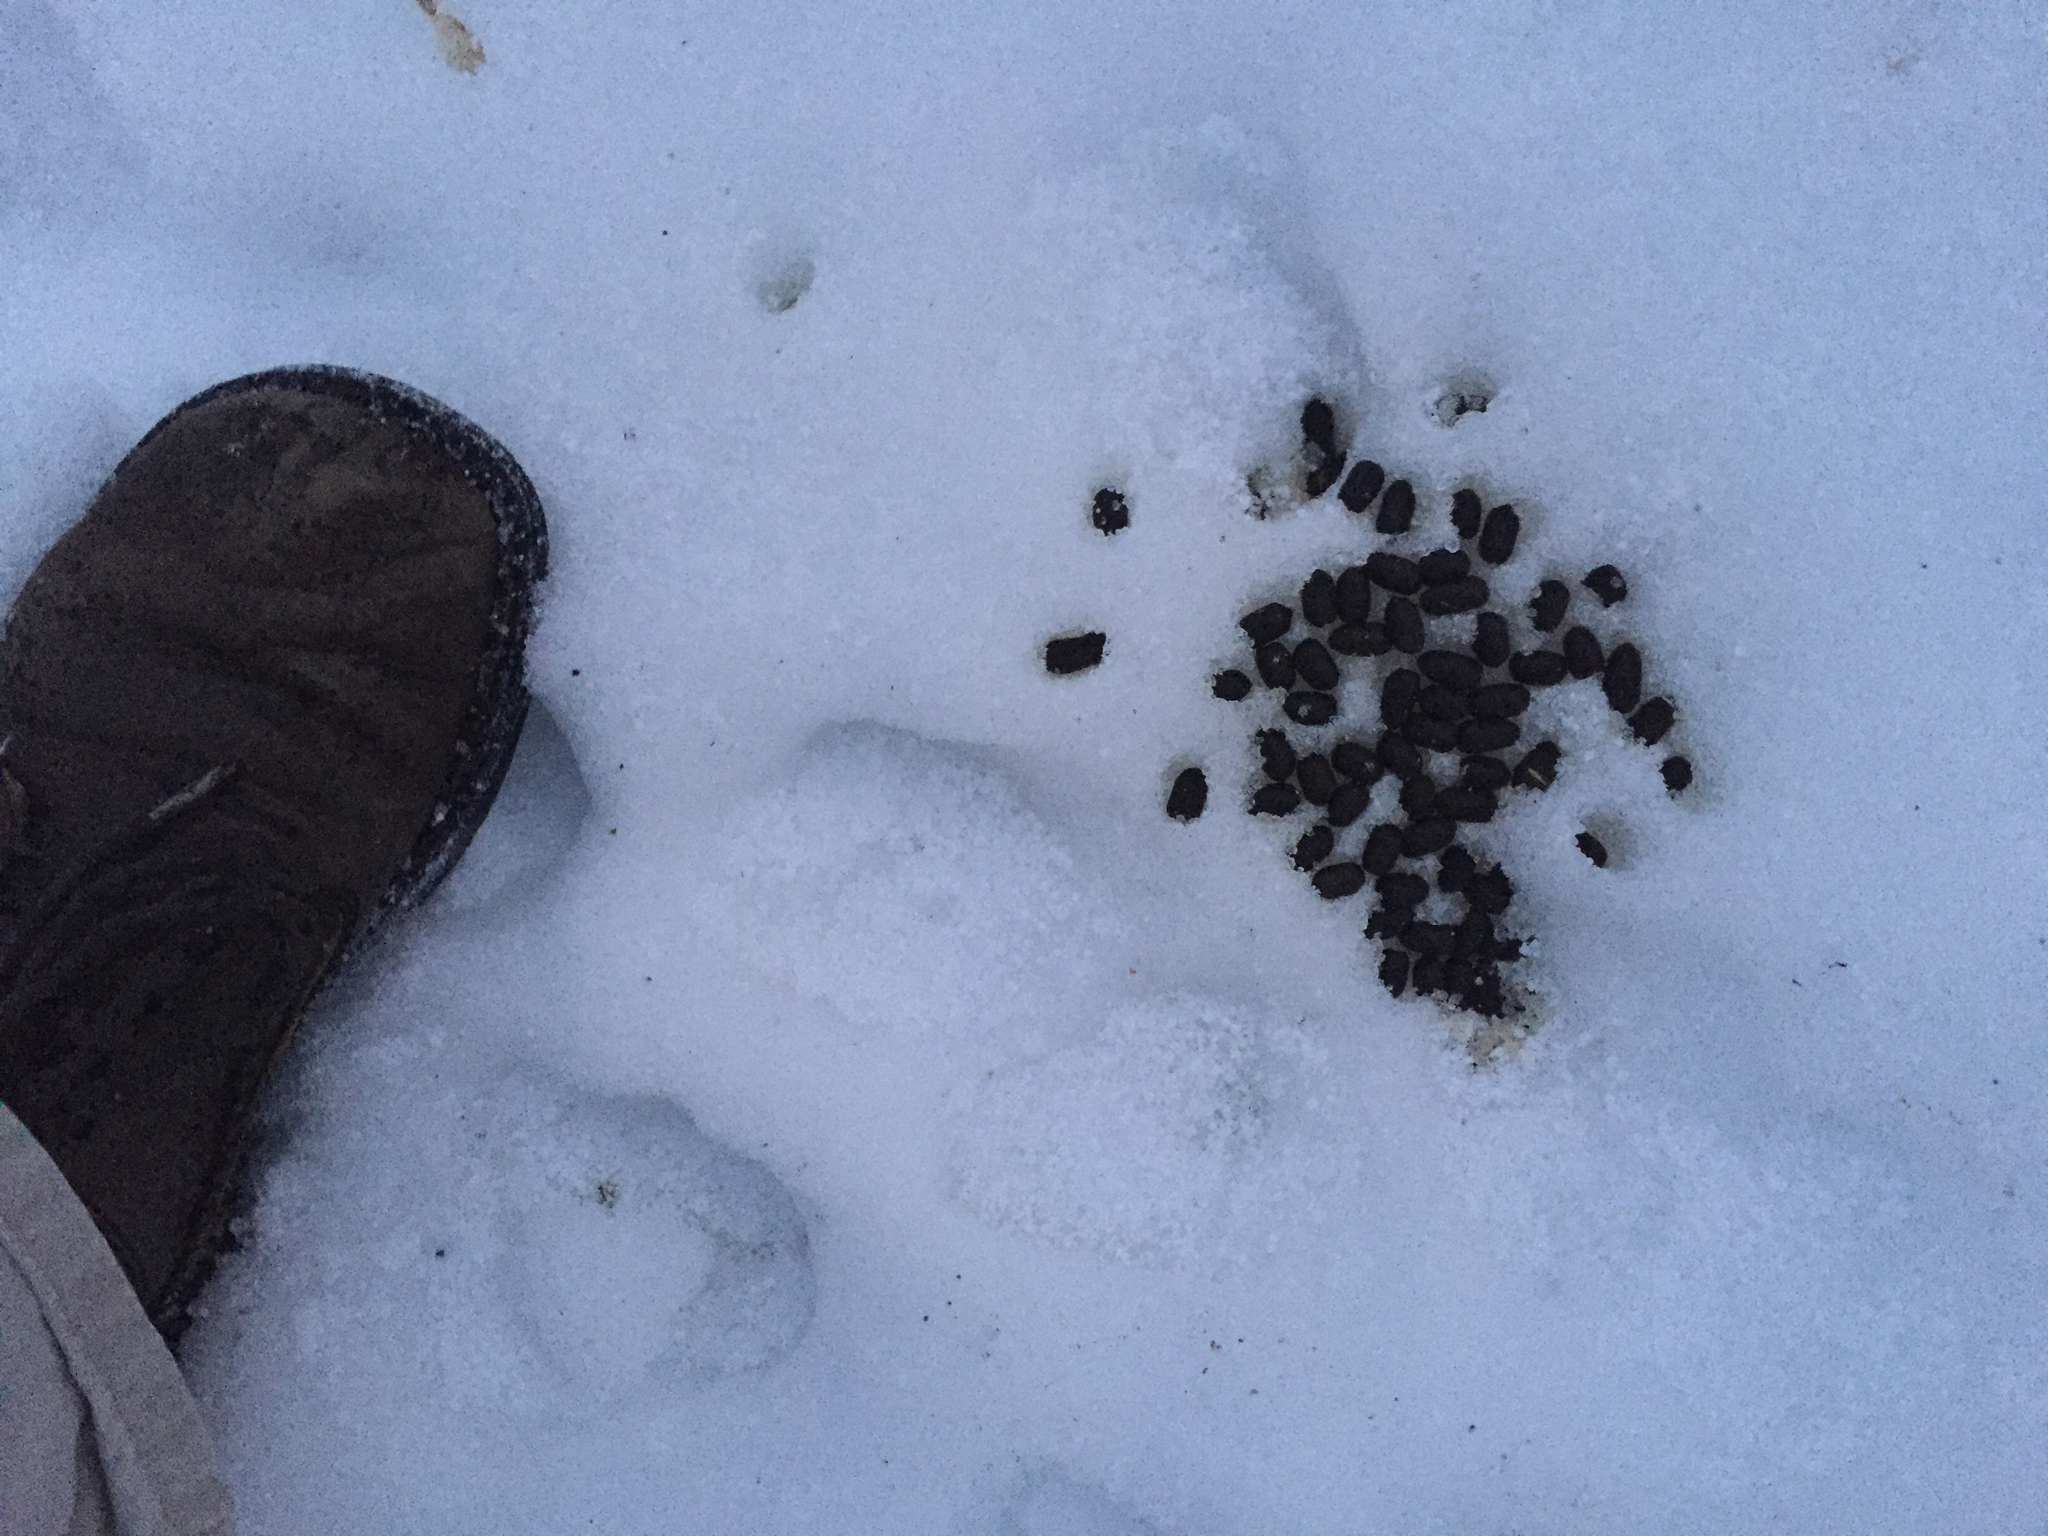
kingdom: Animalia
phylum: Chordata
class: Mammalia
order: Artiodactyla
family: Cervidae
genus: Odocoileus
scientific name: Odocoileus virginianus
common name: White-tailed deer
